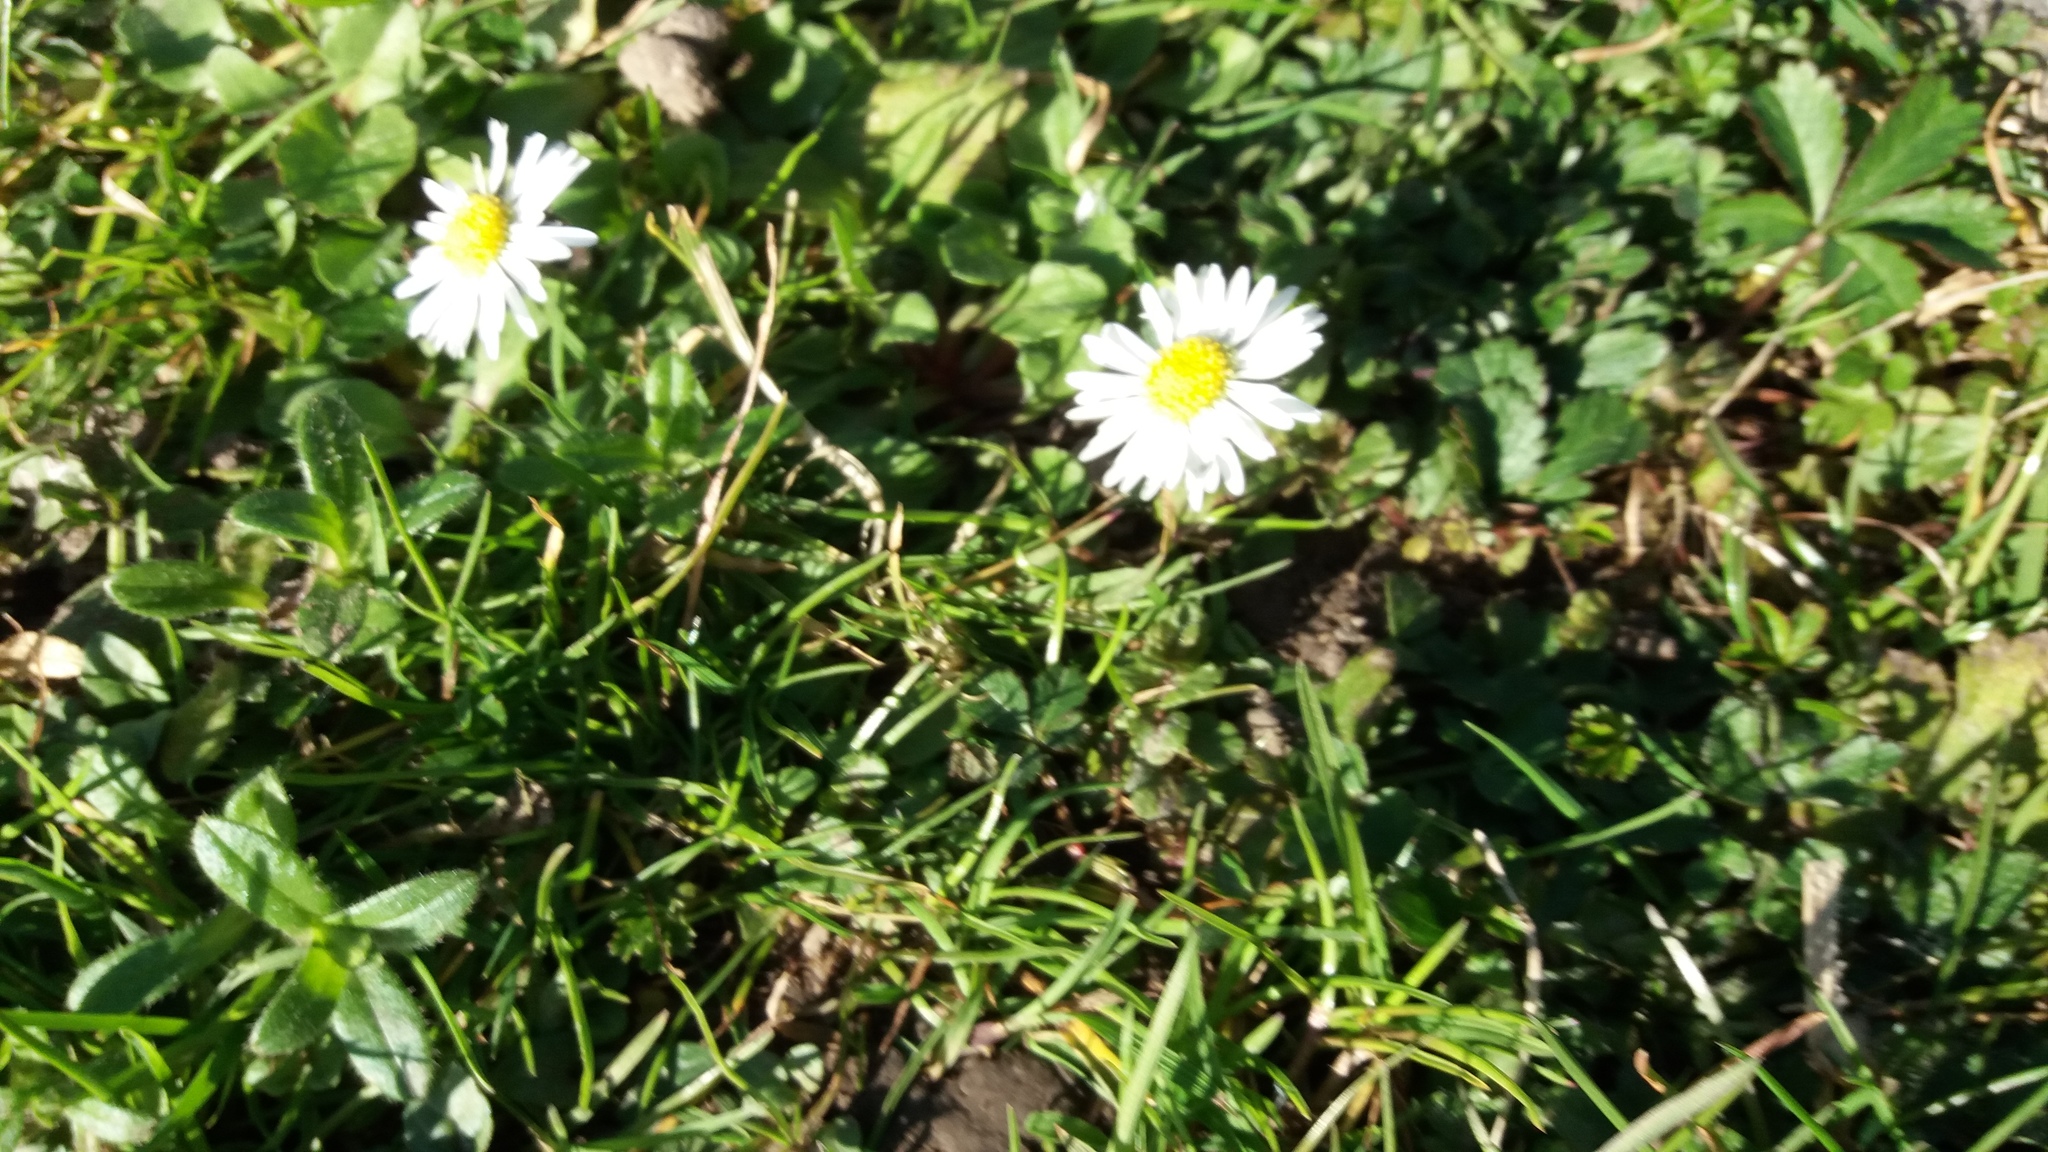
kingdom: Plantae
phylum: Tracheophyta
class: Magnoliopsida
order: Asterales
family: Asteraceae
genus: Bellis
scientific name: Bellis perennis
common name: Lawndaisy
